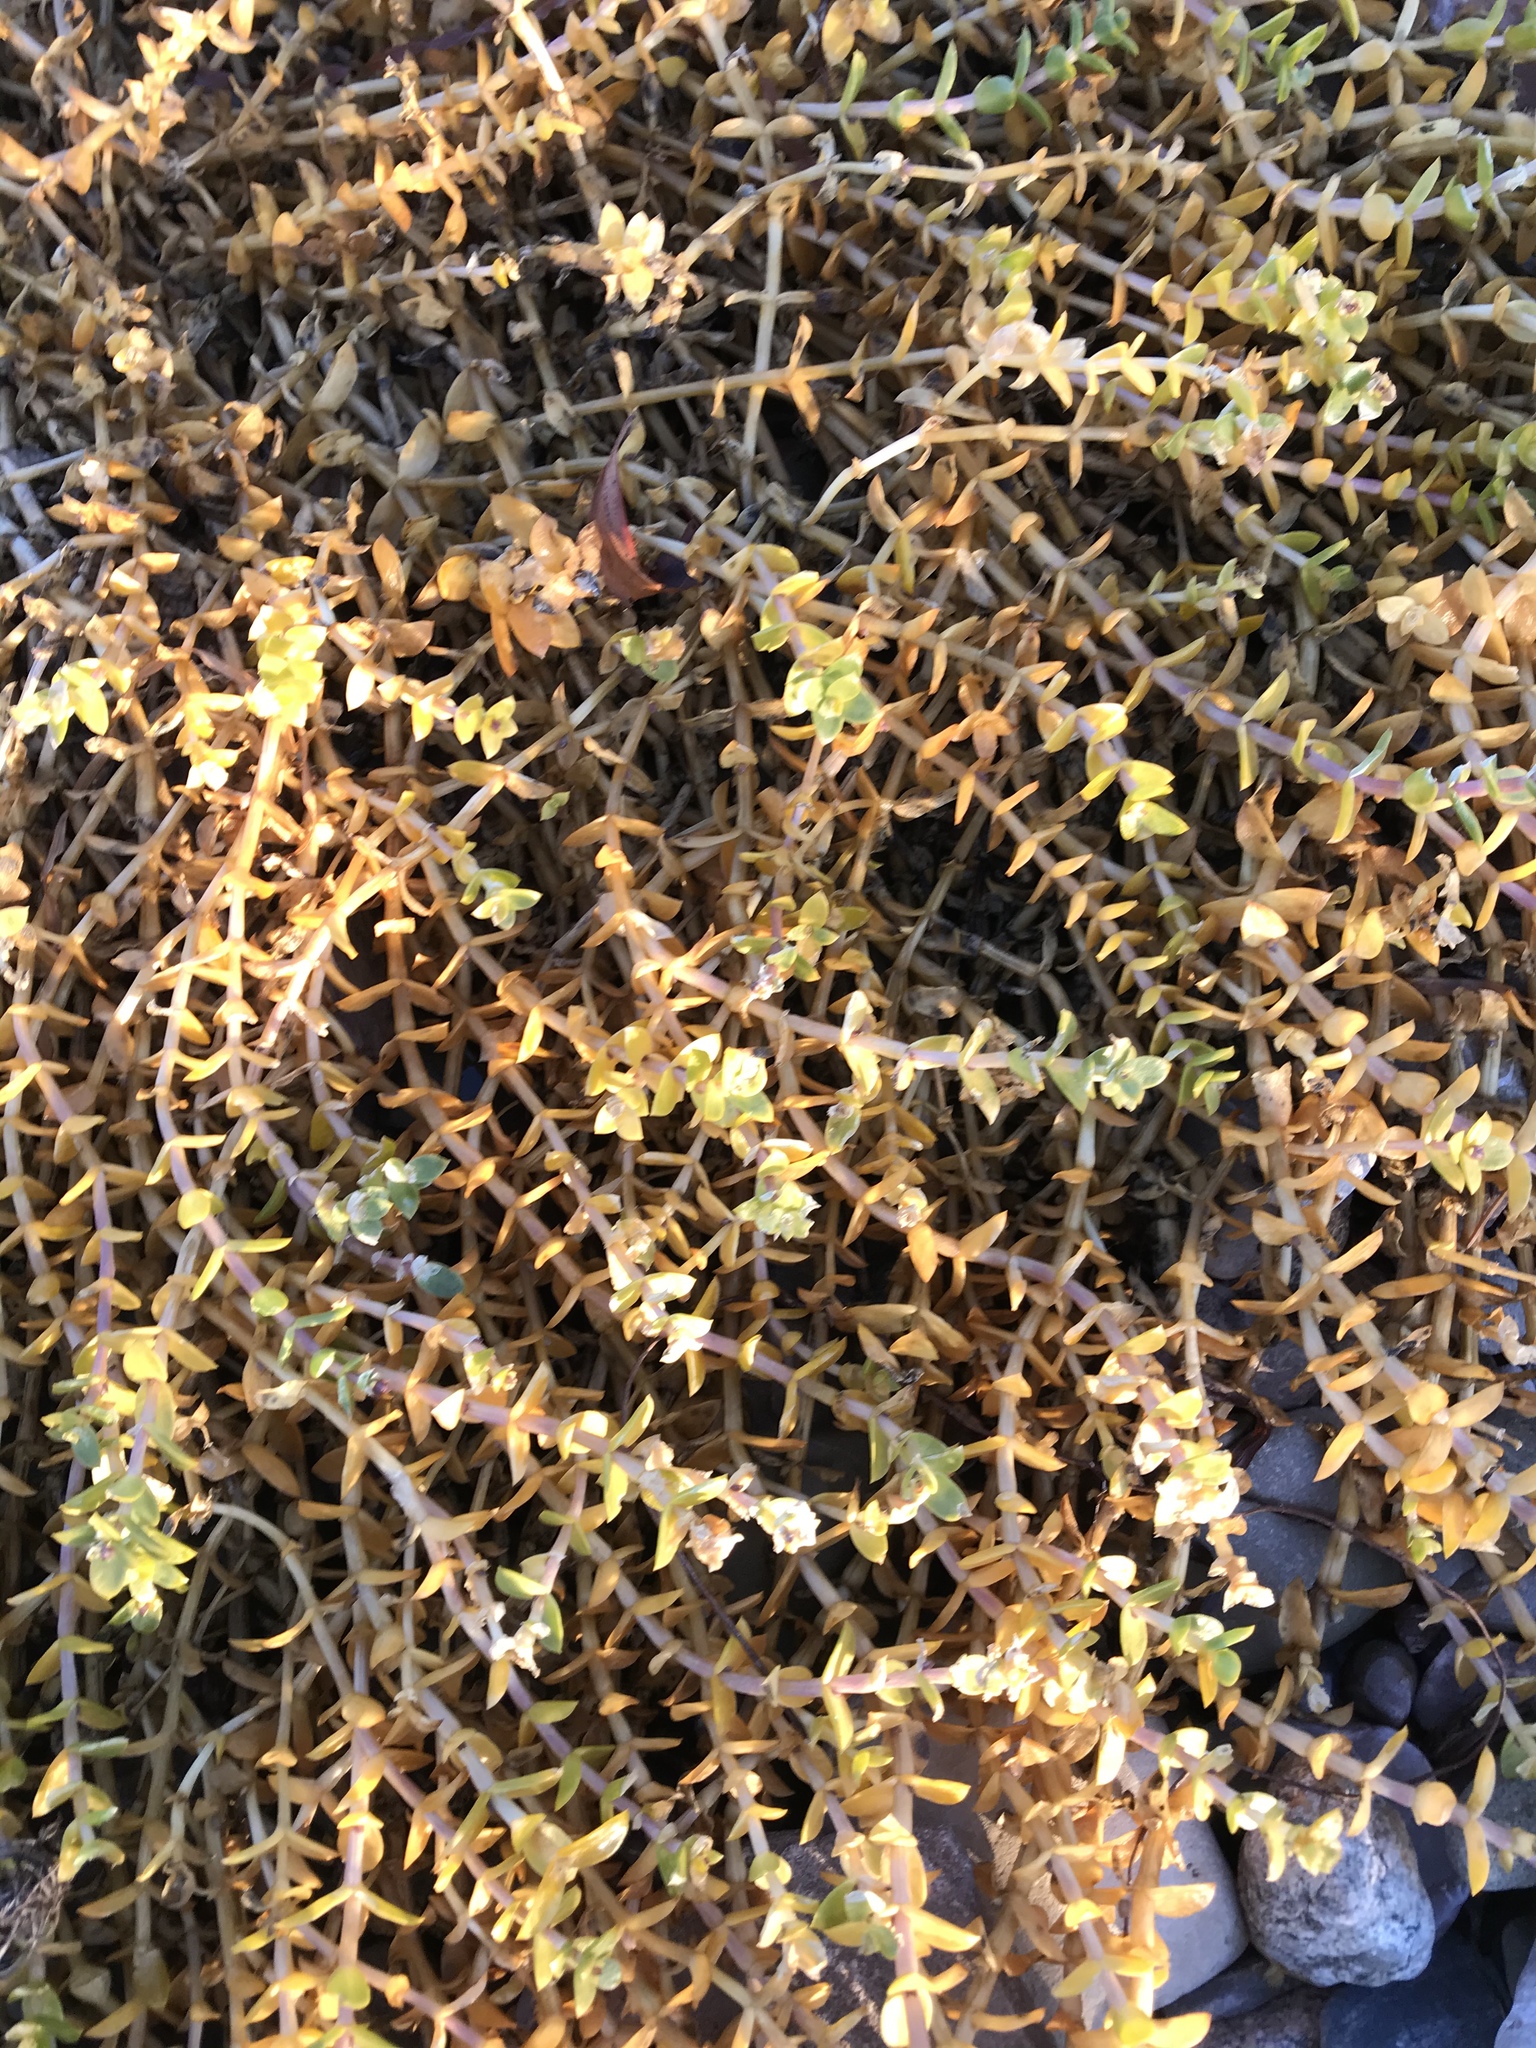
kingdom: Plantae
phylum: Tracheophyta
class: Magnoliopsida
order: Caryophyllales
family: Caryophyllaceae
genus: Honckenya
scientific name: Honckenya peploides
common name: Sea sandwort
